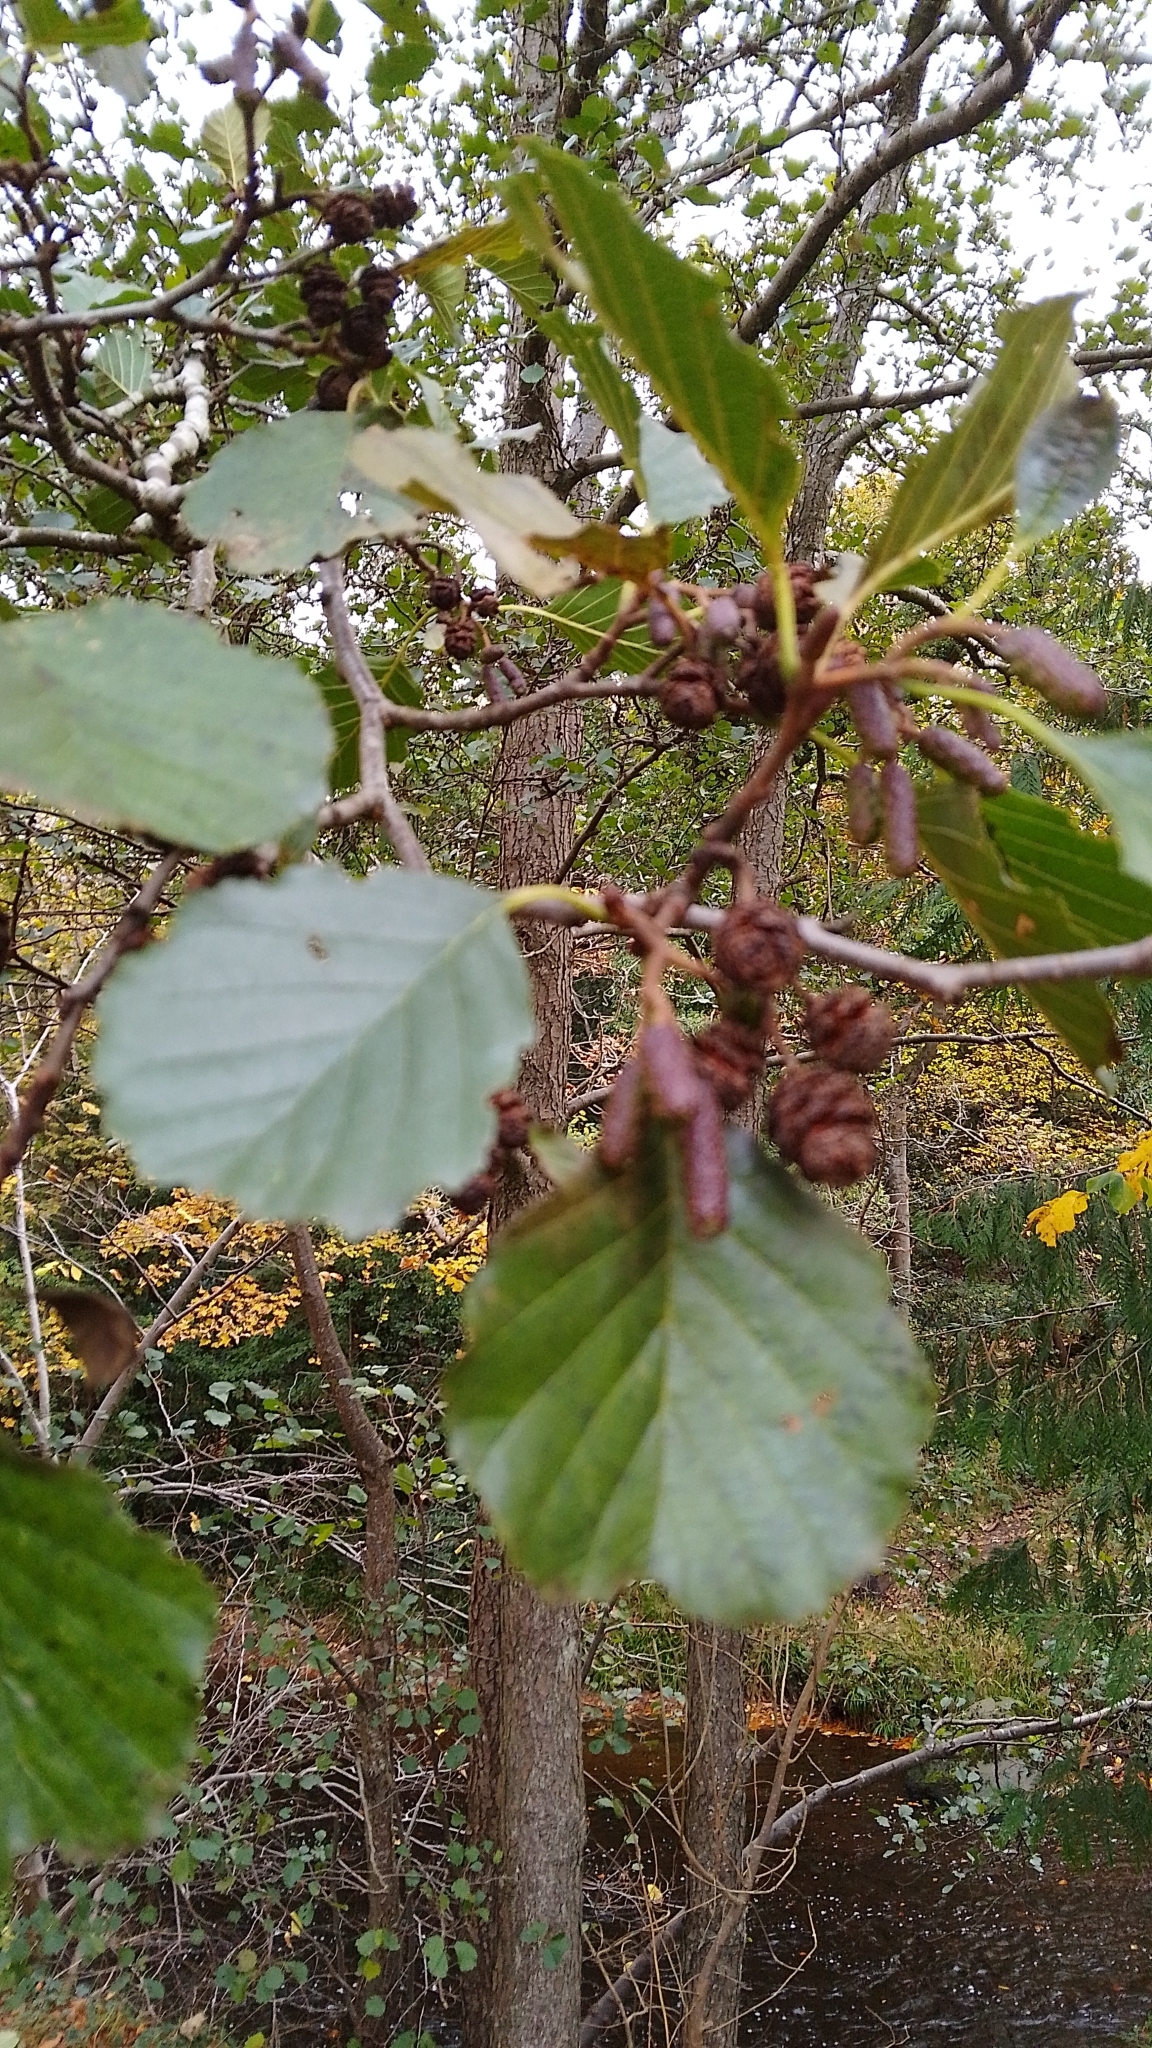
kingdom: Plantae
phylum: Tracheophyta
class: Magnoliopsida
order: Fagales
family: Betulaceae
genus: Alnus
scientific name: Alnus glutinosa
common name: Black alder
